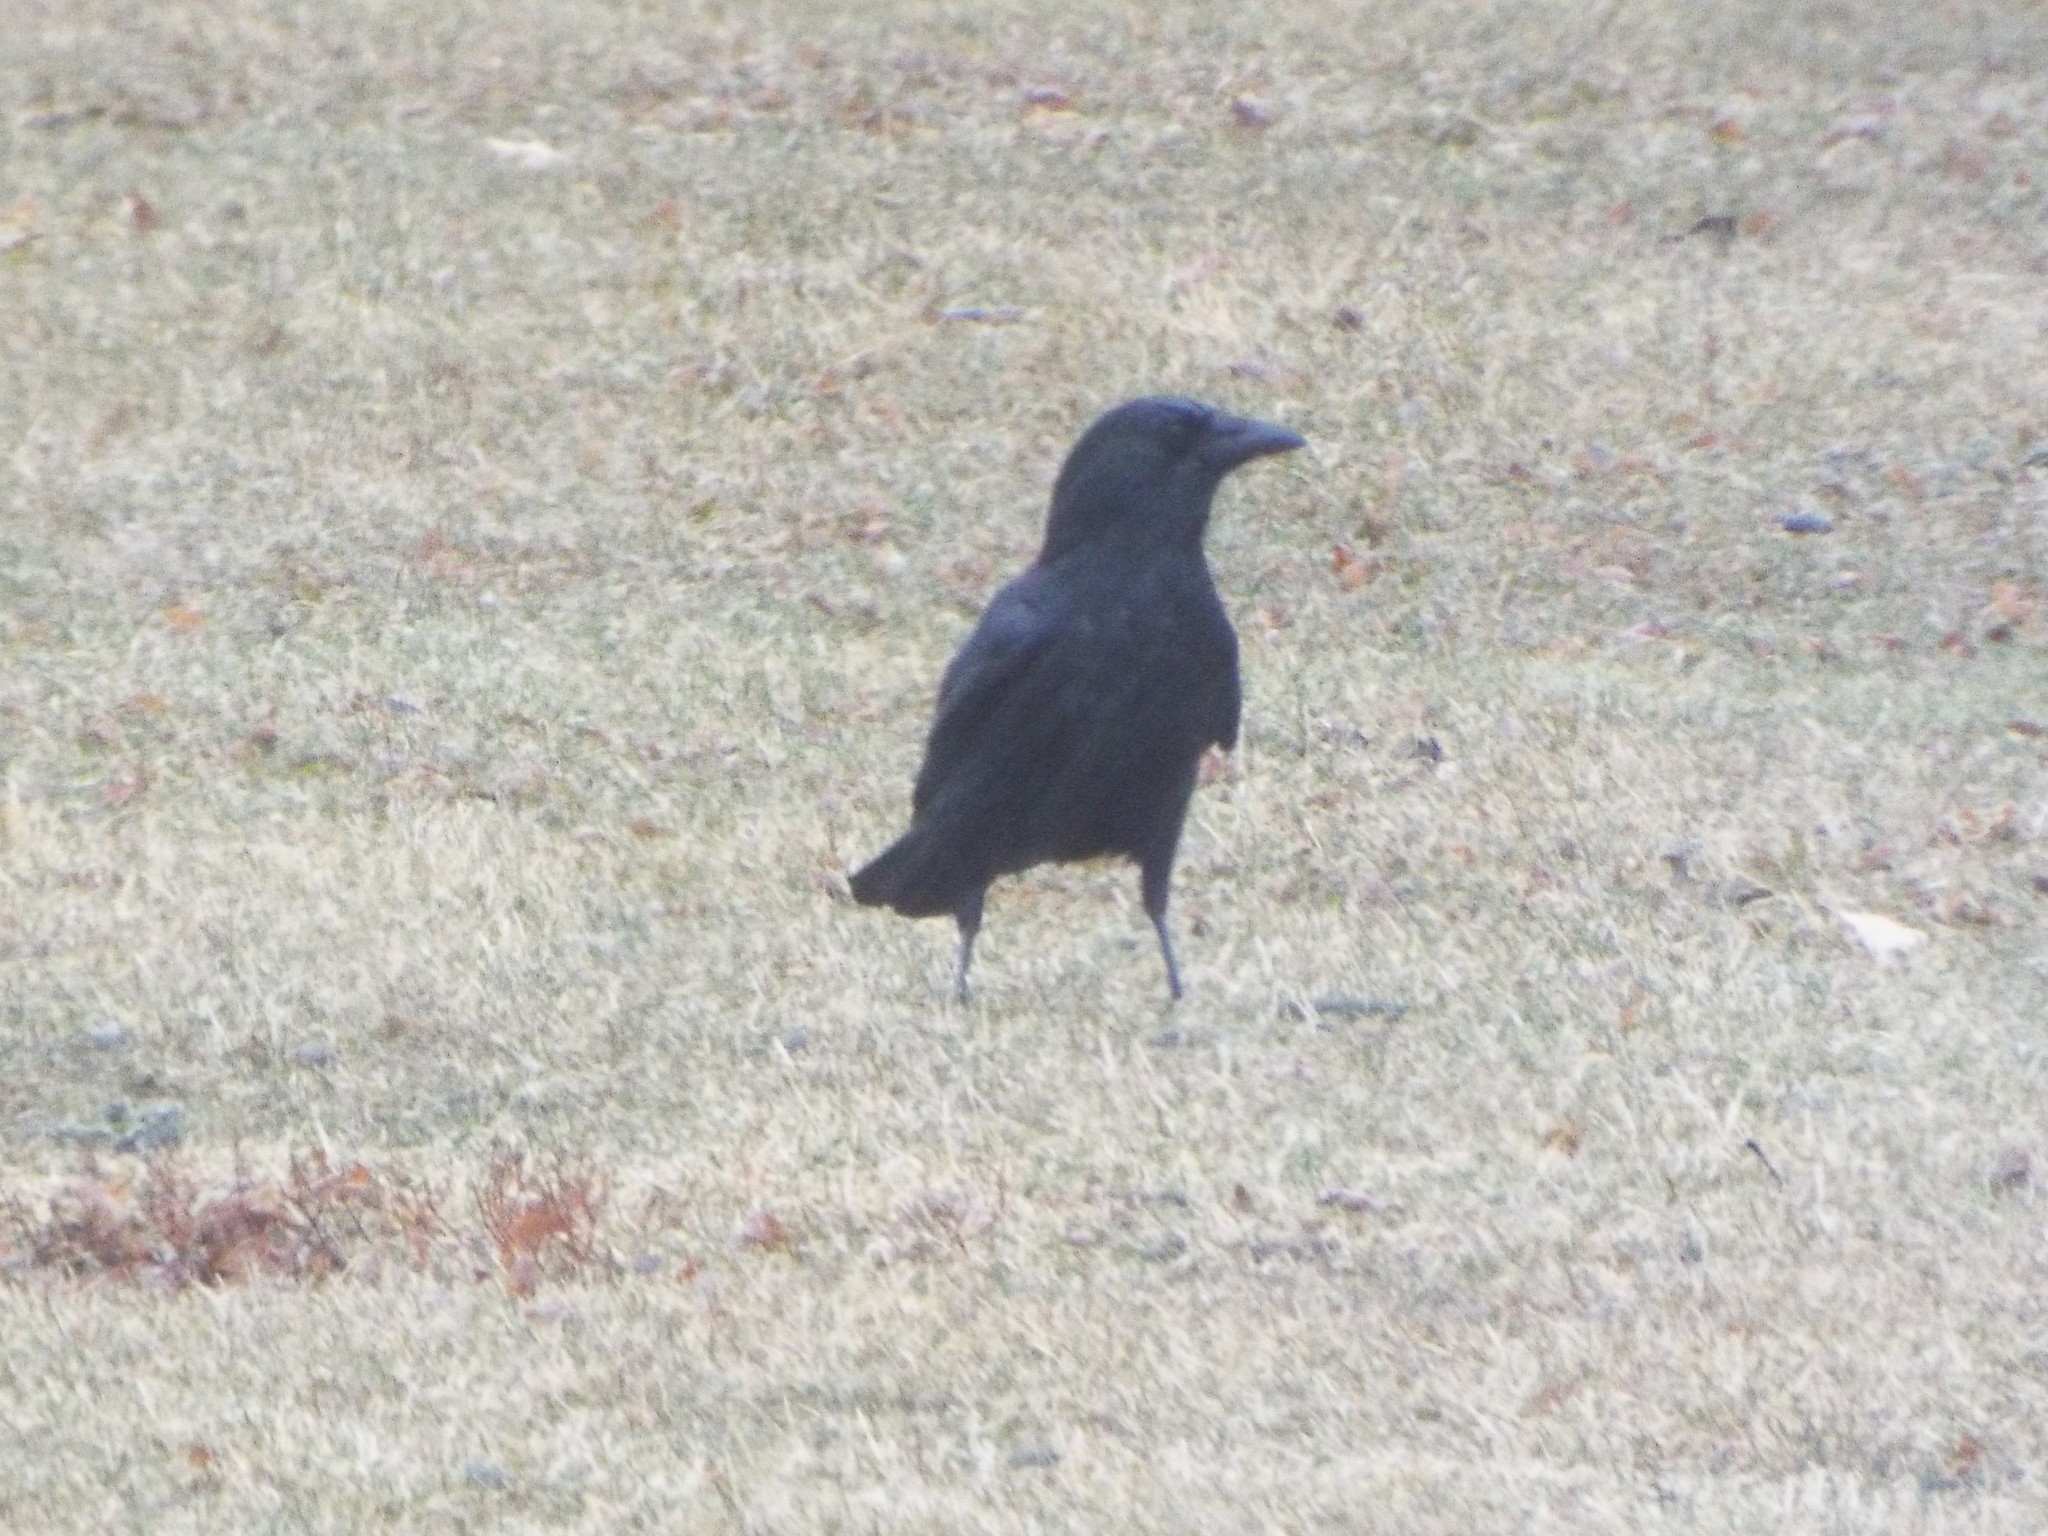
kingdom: Animalia
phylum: Chordata
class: Aves
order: Passeriformes
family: Corvidae
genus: Corvus
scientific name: Corvus brachyrhynchos
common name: American crow
